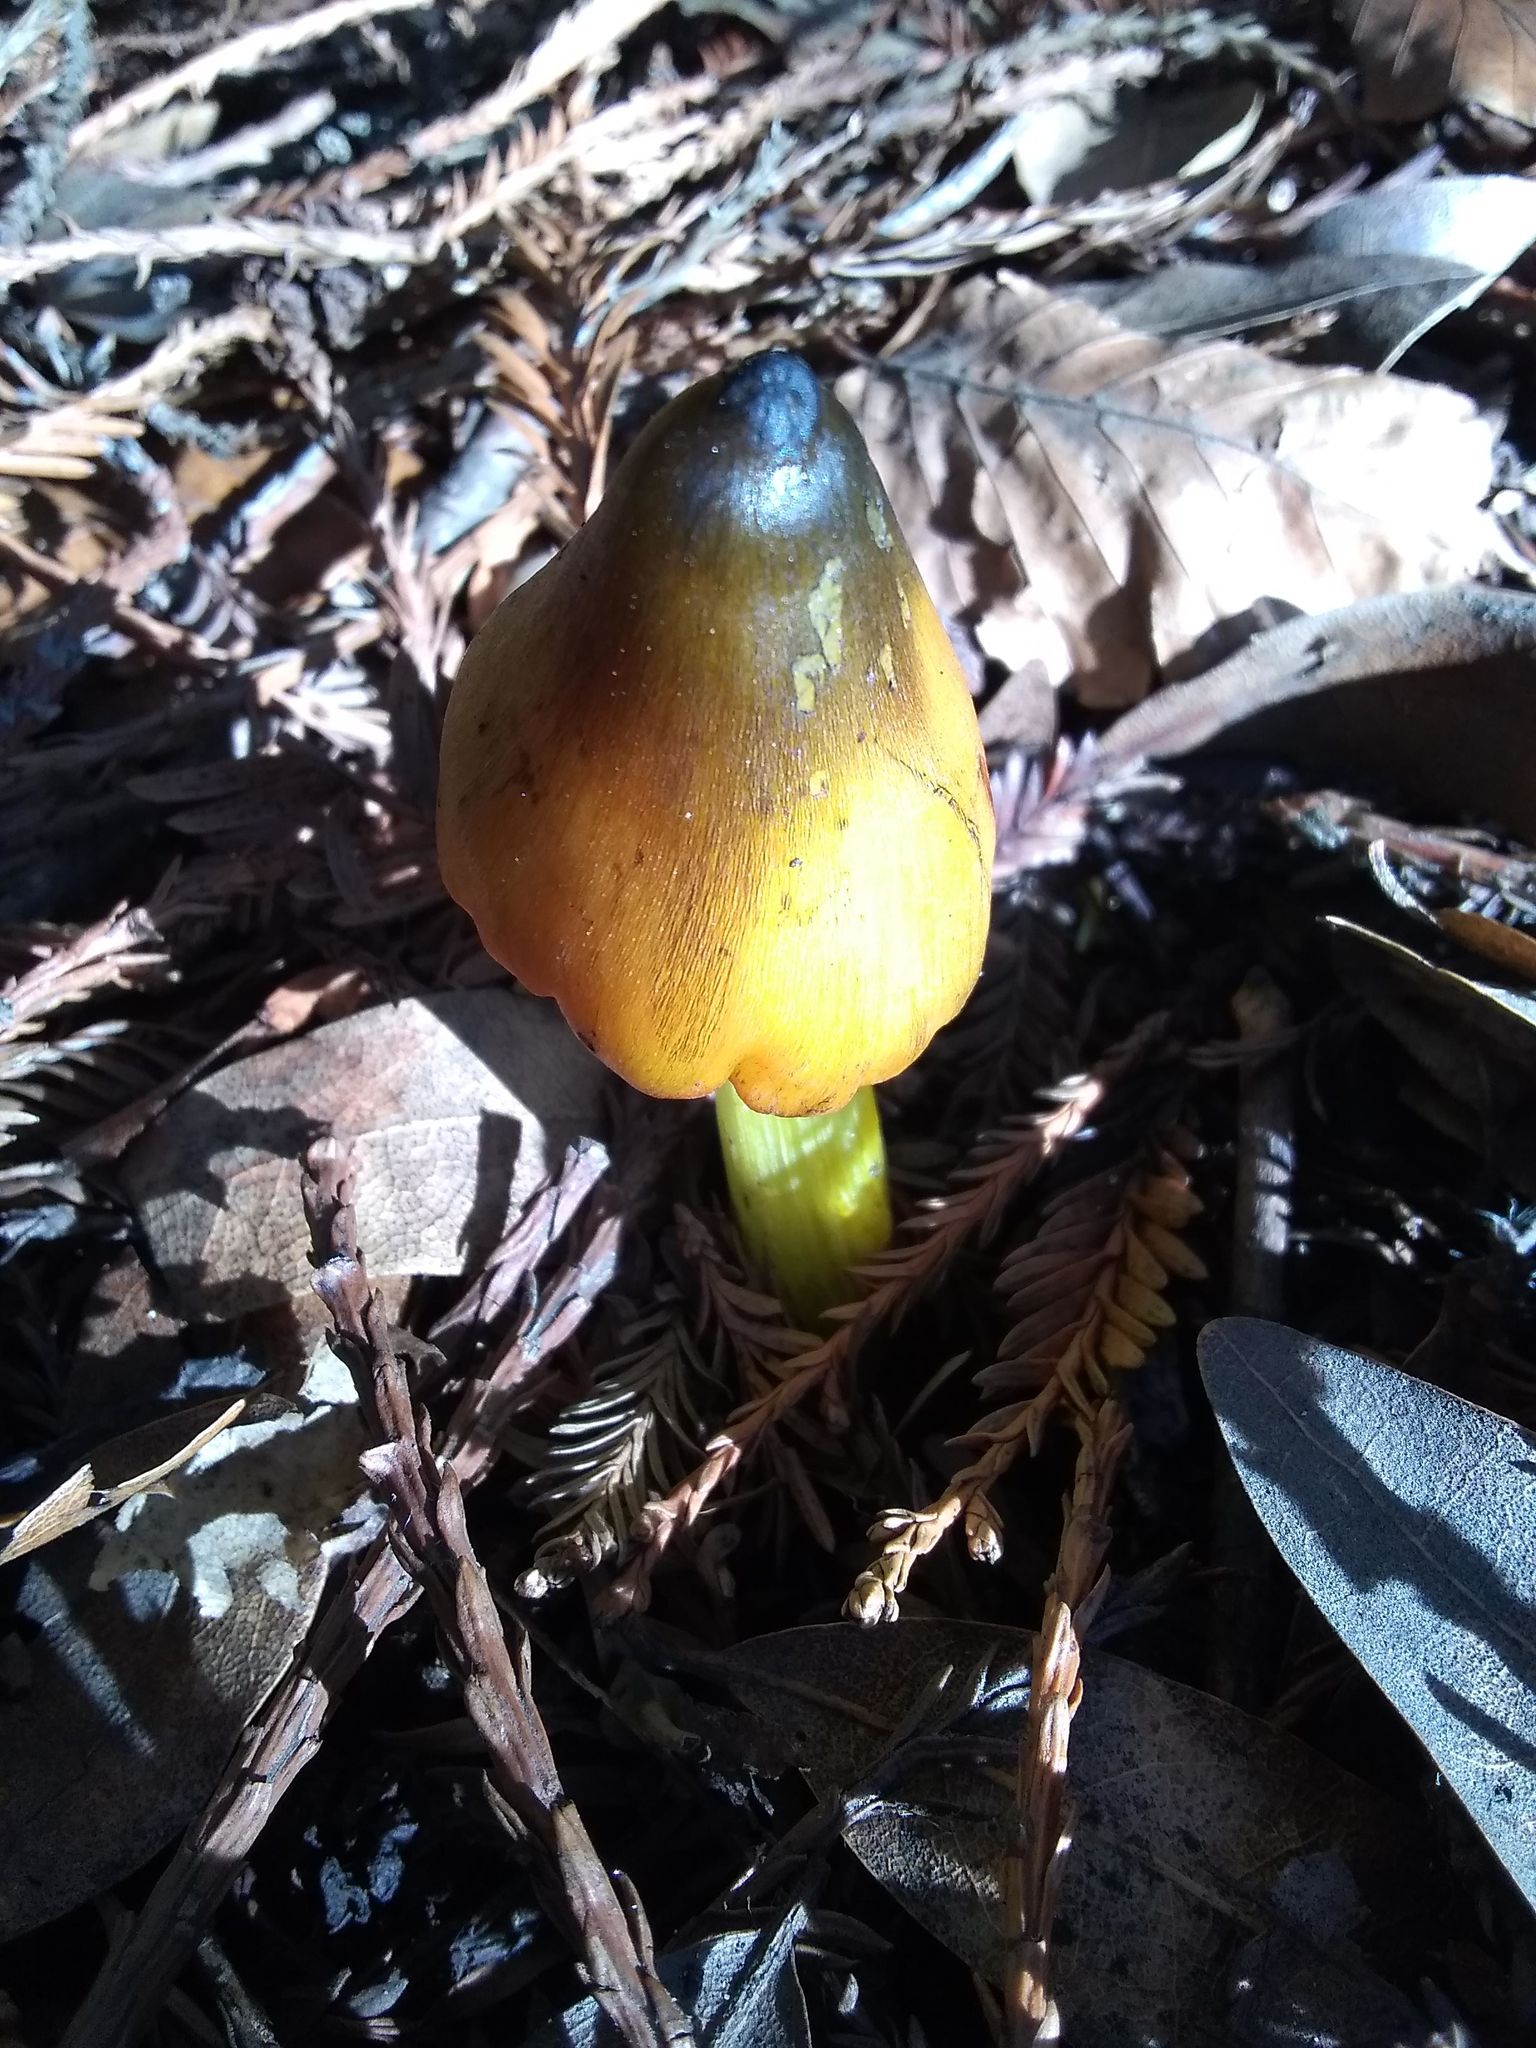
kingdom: Fungi
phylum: Basidiomycota
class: Agaricomycetes
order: Agaricales
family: Hygrophoraceae
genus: Hygrocybe
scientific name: Hygrocybe singeri
